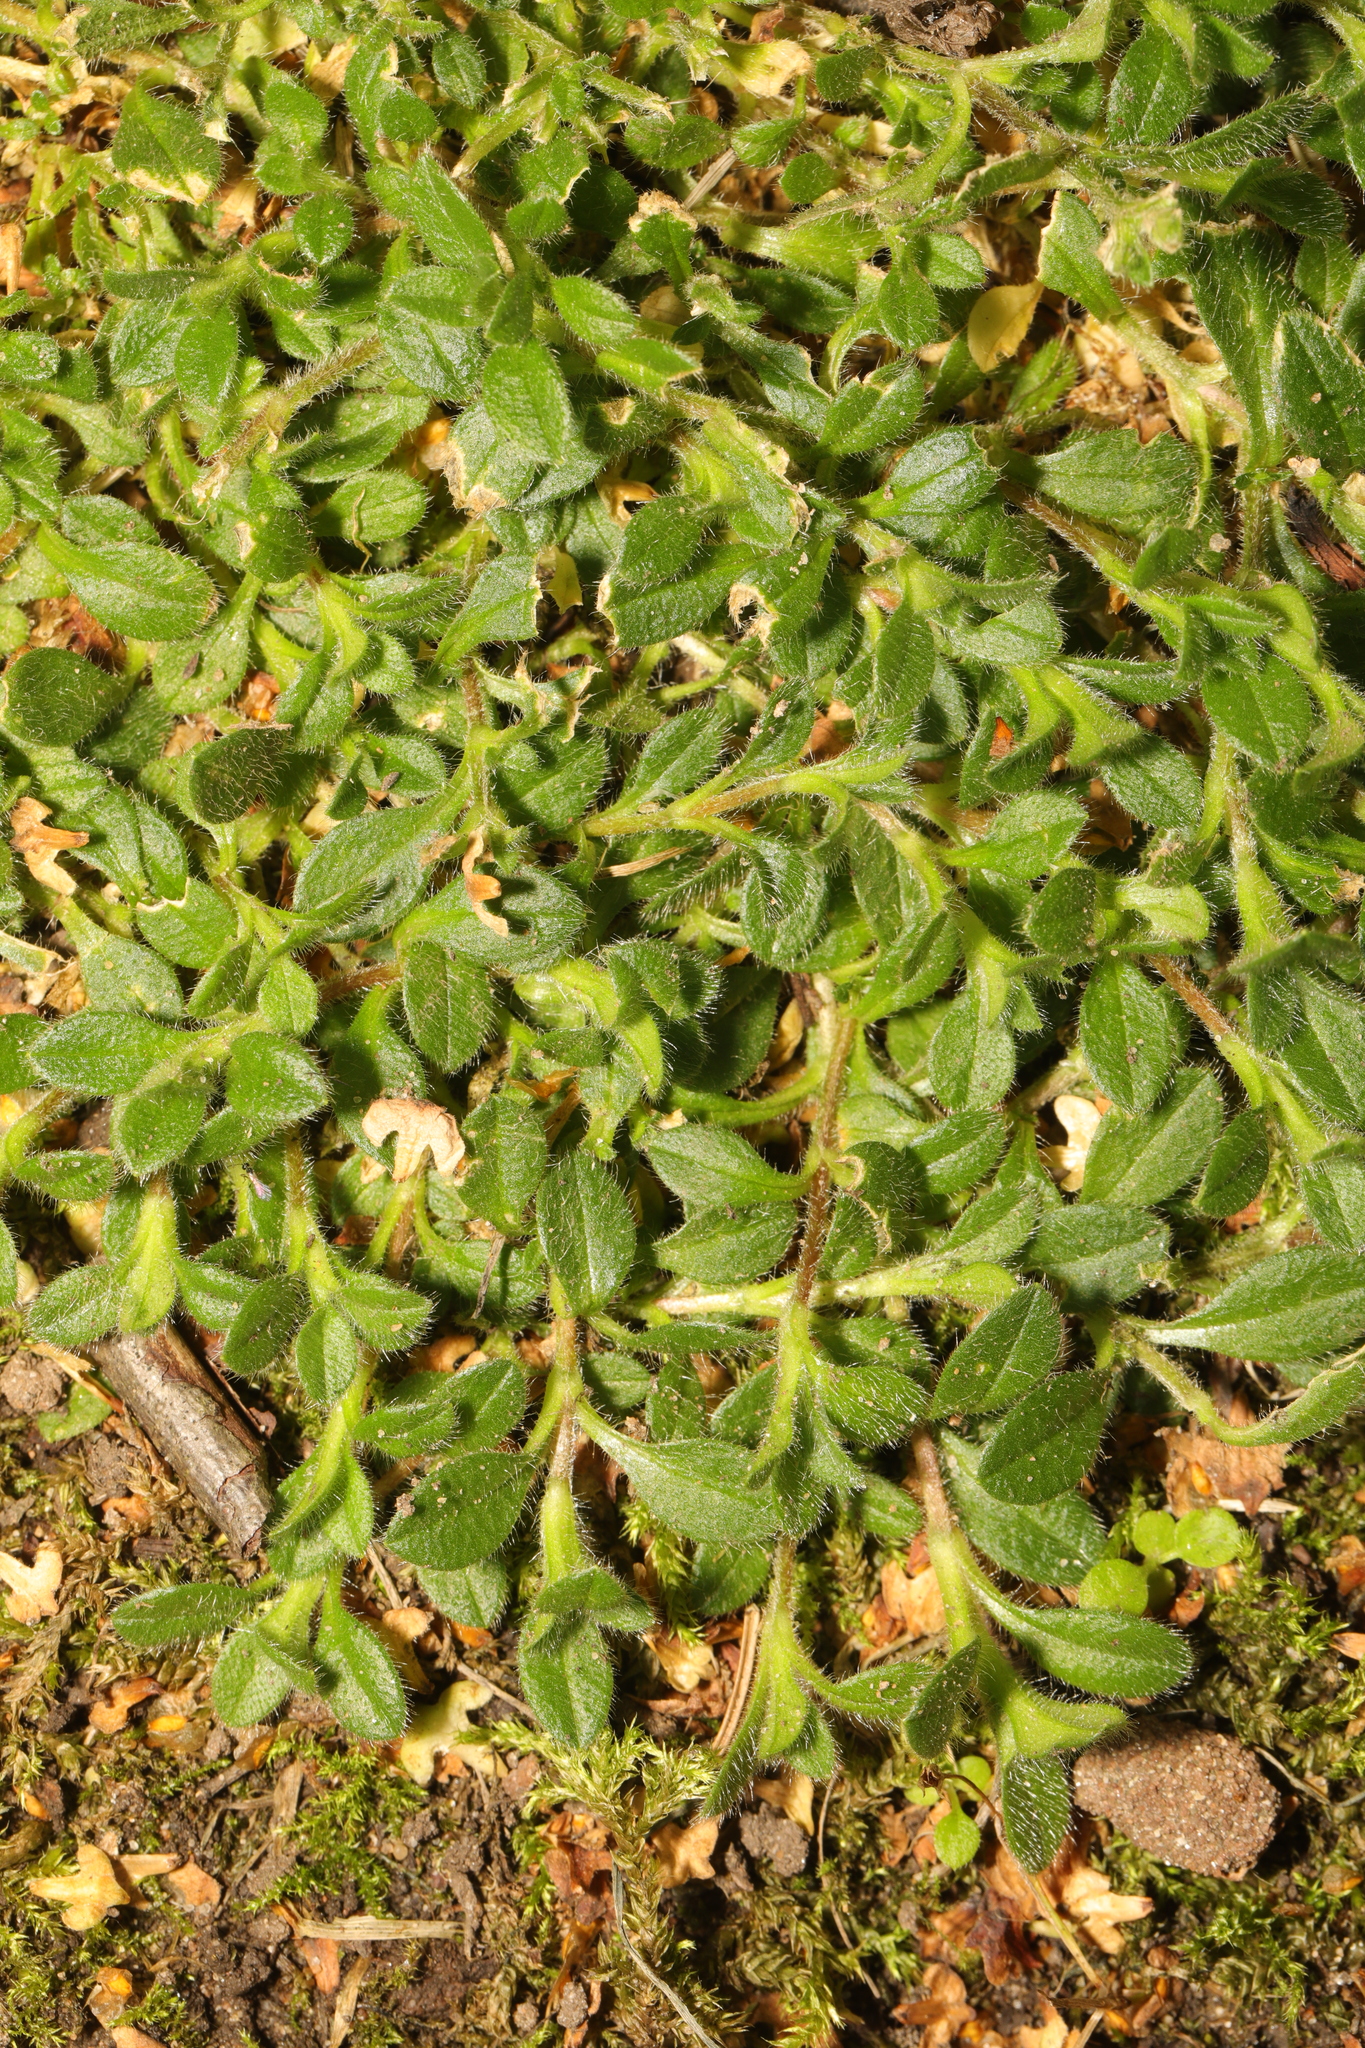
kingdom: Plantae
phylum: Tracheophyta
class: Magnoliopsida
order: Caryophyllales
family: Caryophyllaceae
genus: Cerastium
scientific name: Cerastium fontanum
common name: Common mouse-ear
